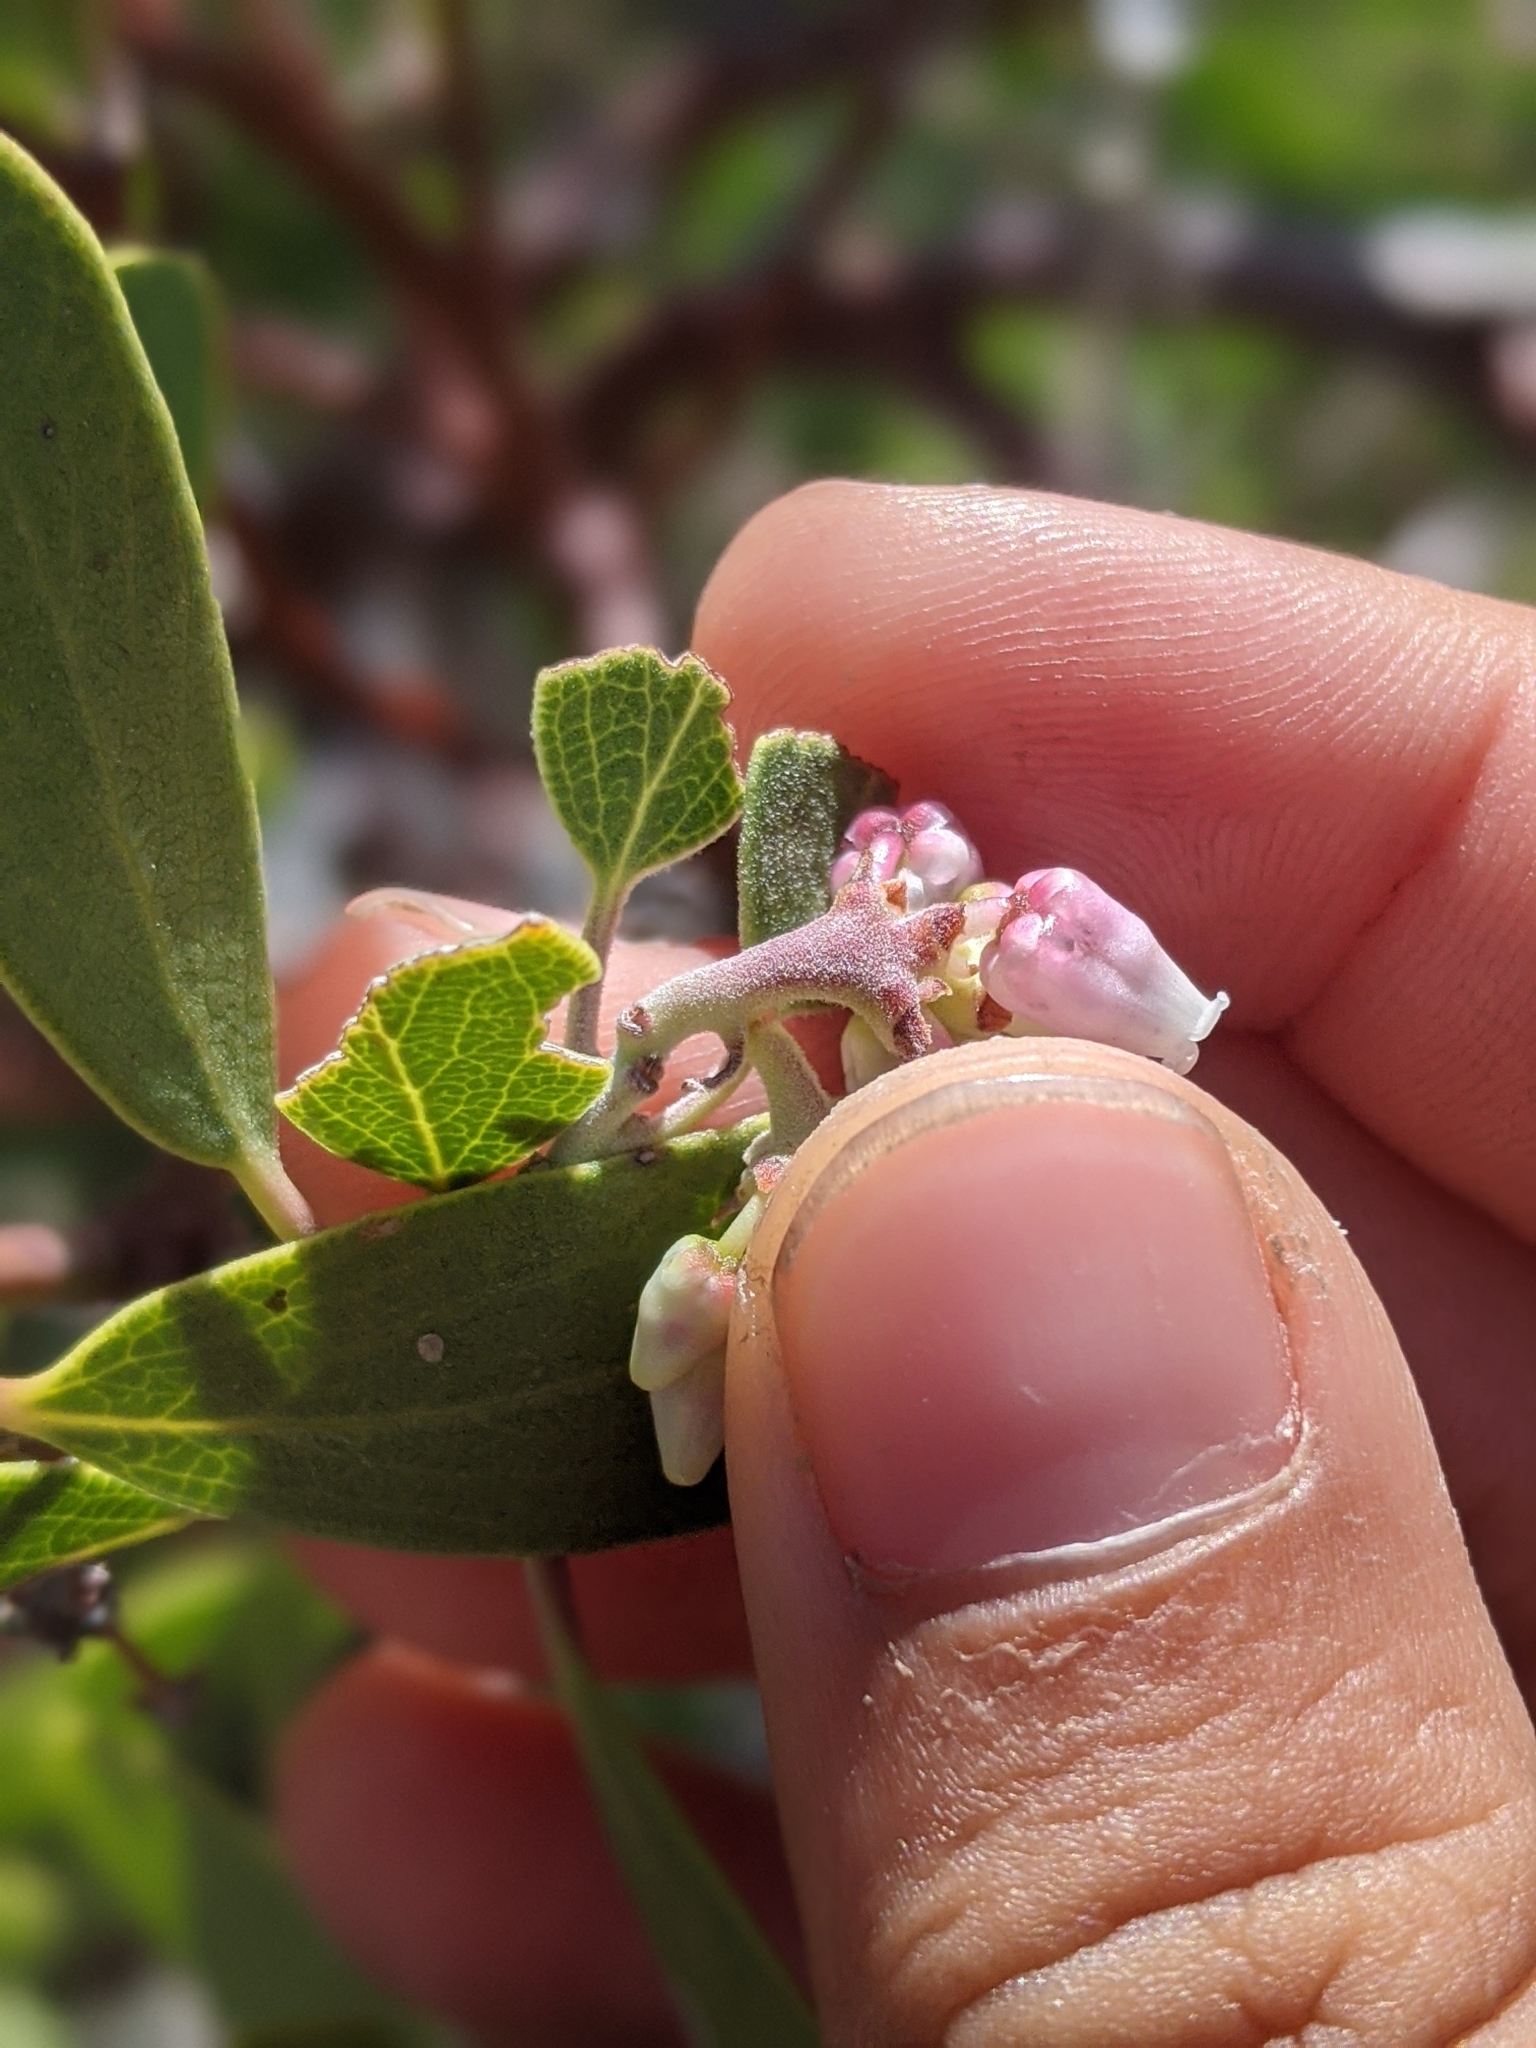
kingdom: Plantae
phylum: Tracheophyta
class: Magnoliopsida
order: Ericales
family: Ericaceae
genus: Arctostaphylos
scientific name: Arctostaphylos pungens
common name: Mexican manzanita
